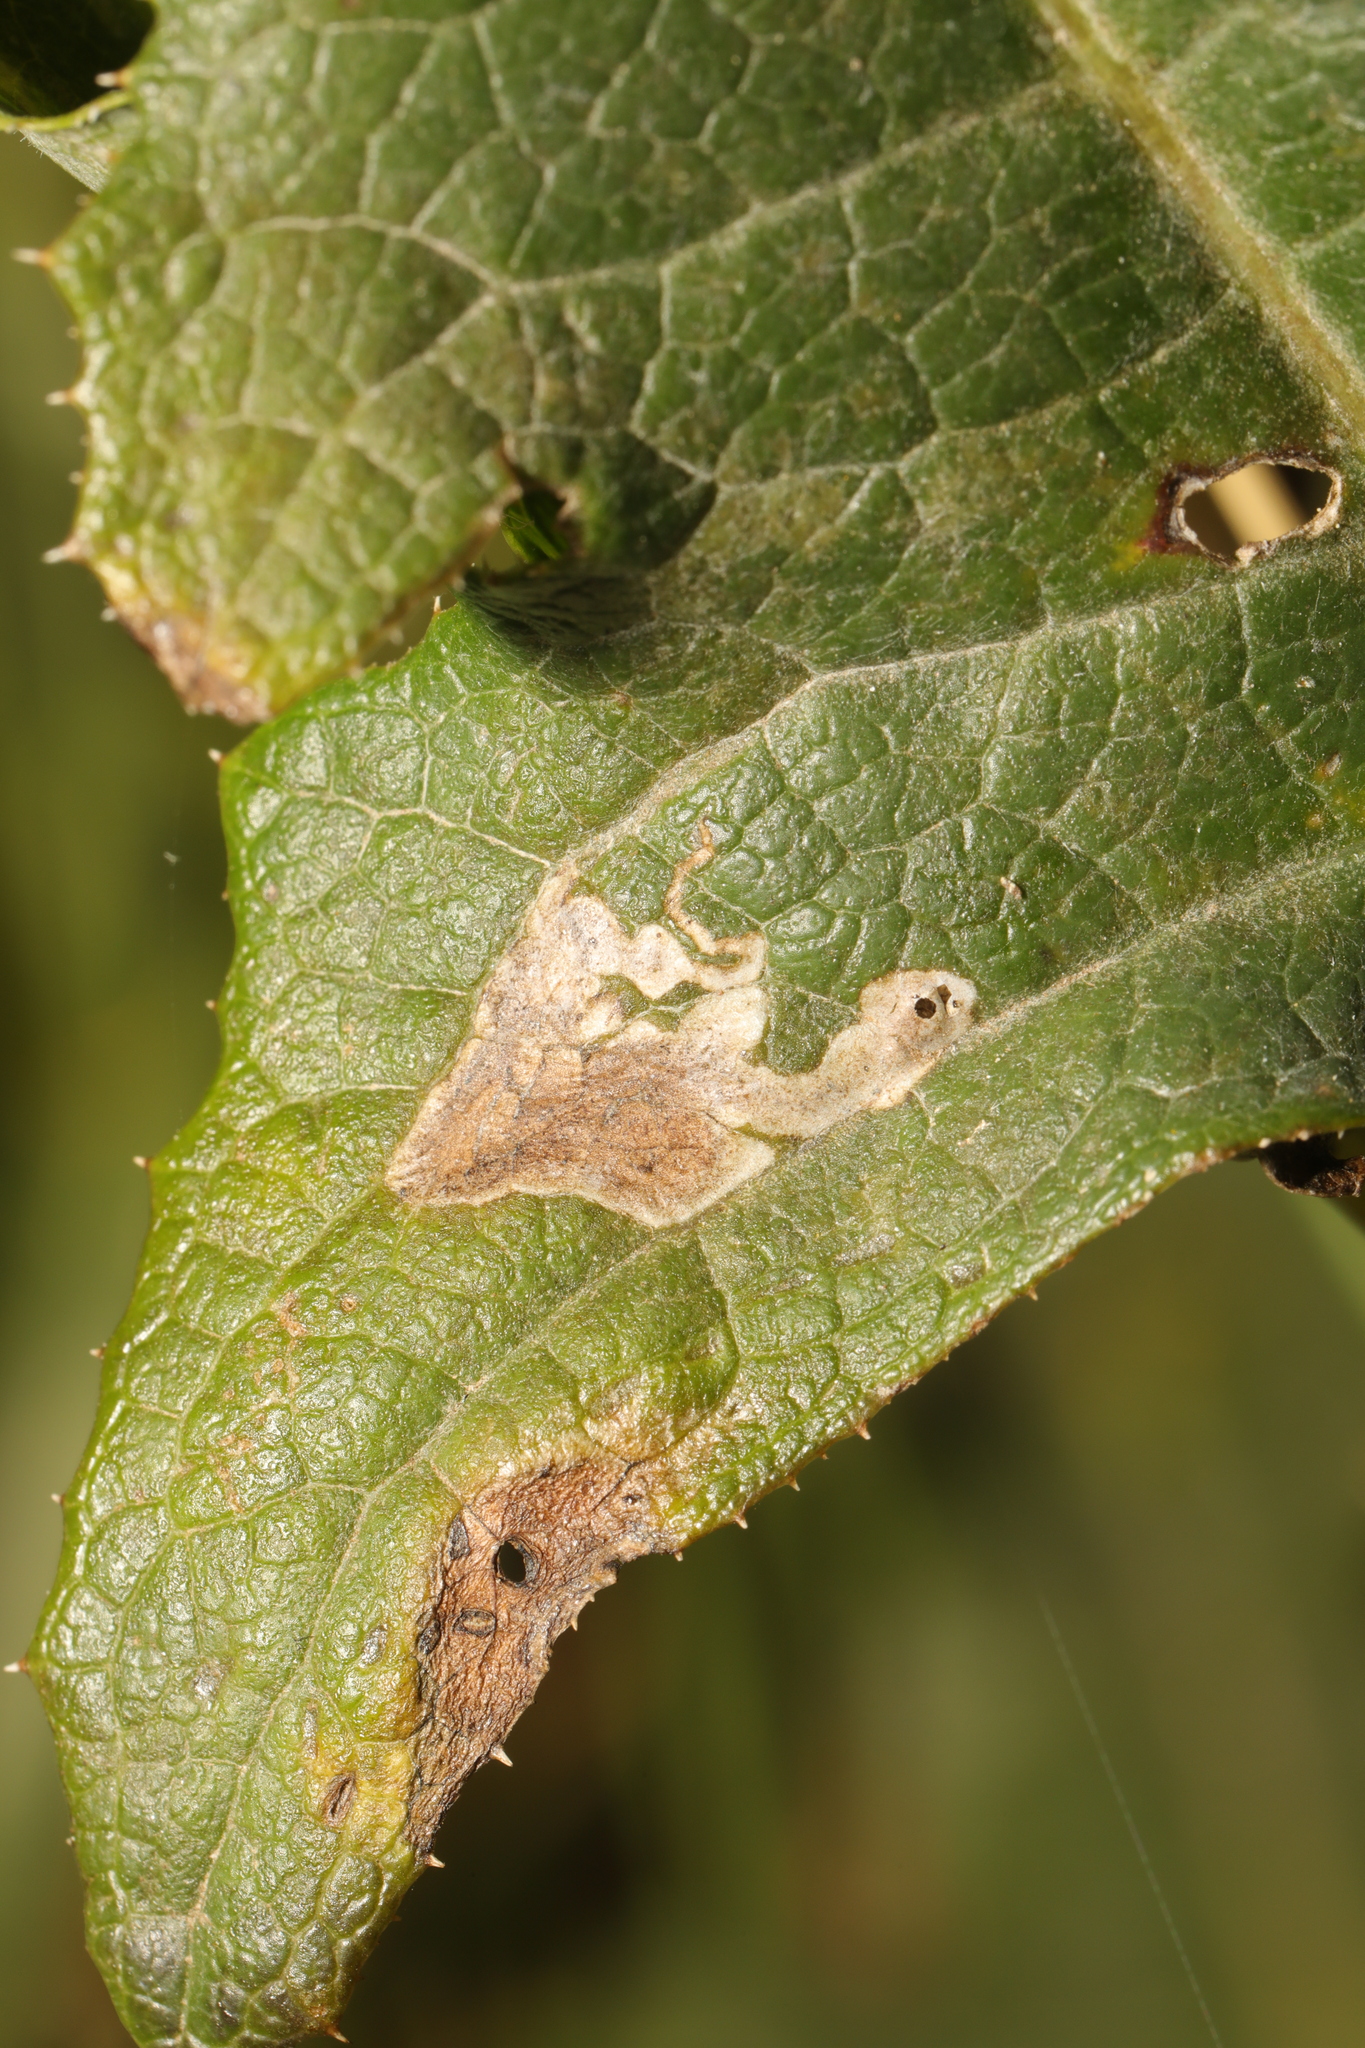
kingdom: Animalia
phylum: Arthropoda
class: Insecta
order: Diptera
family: Agromyzidae
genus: Liriomyza
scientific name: Liriomyza sonchi
